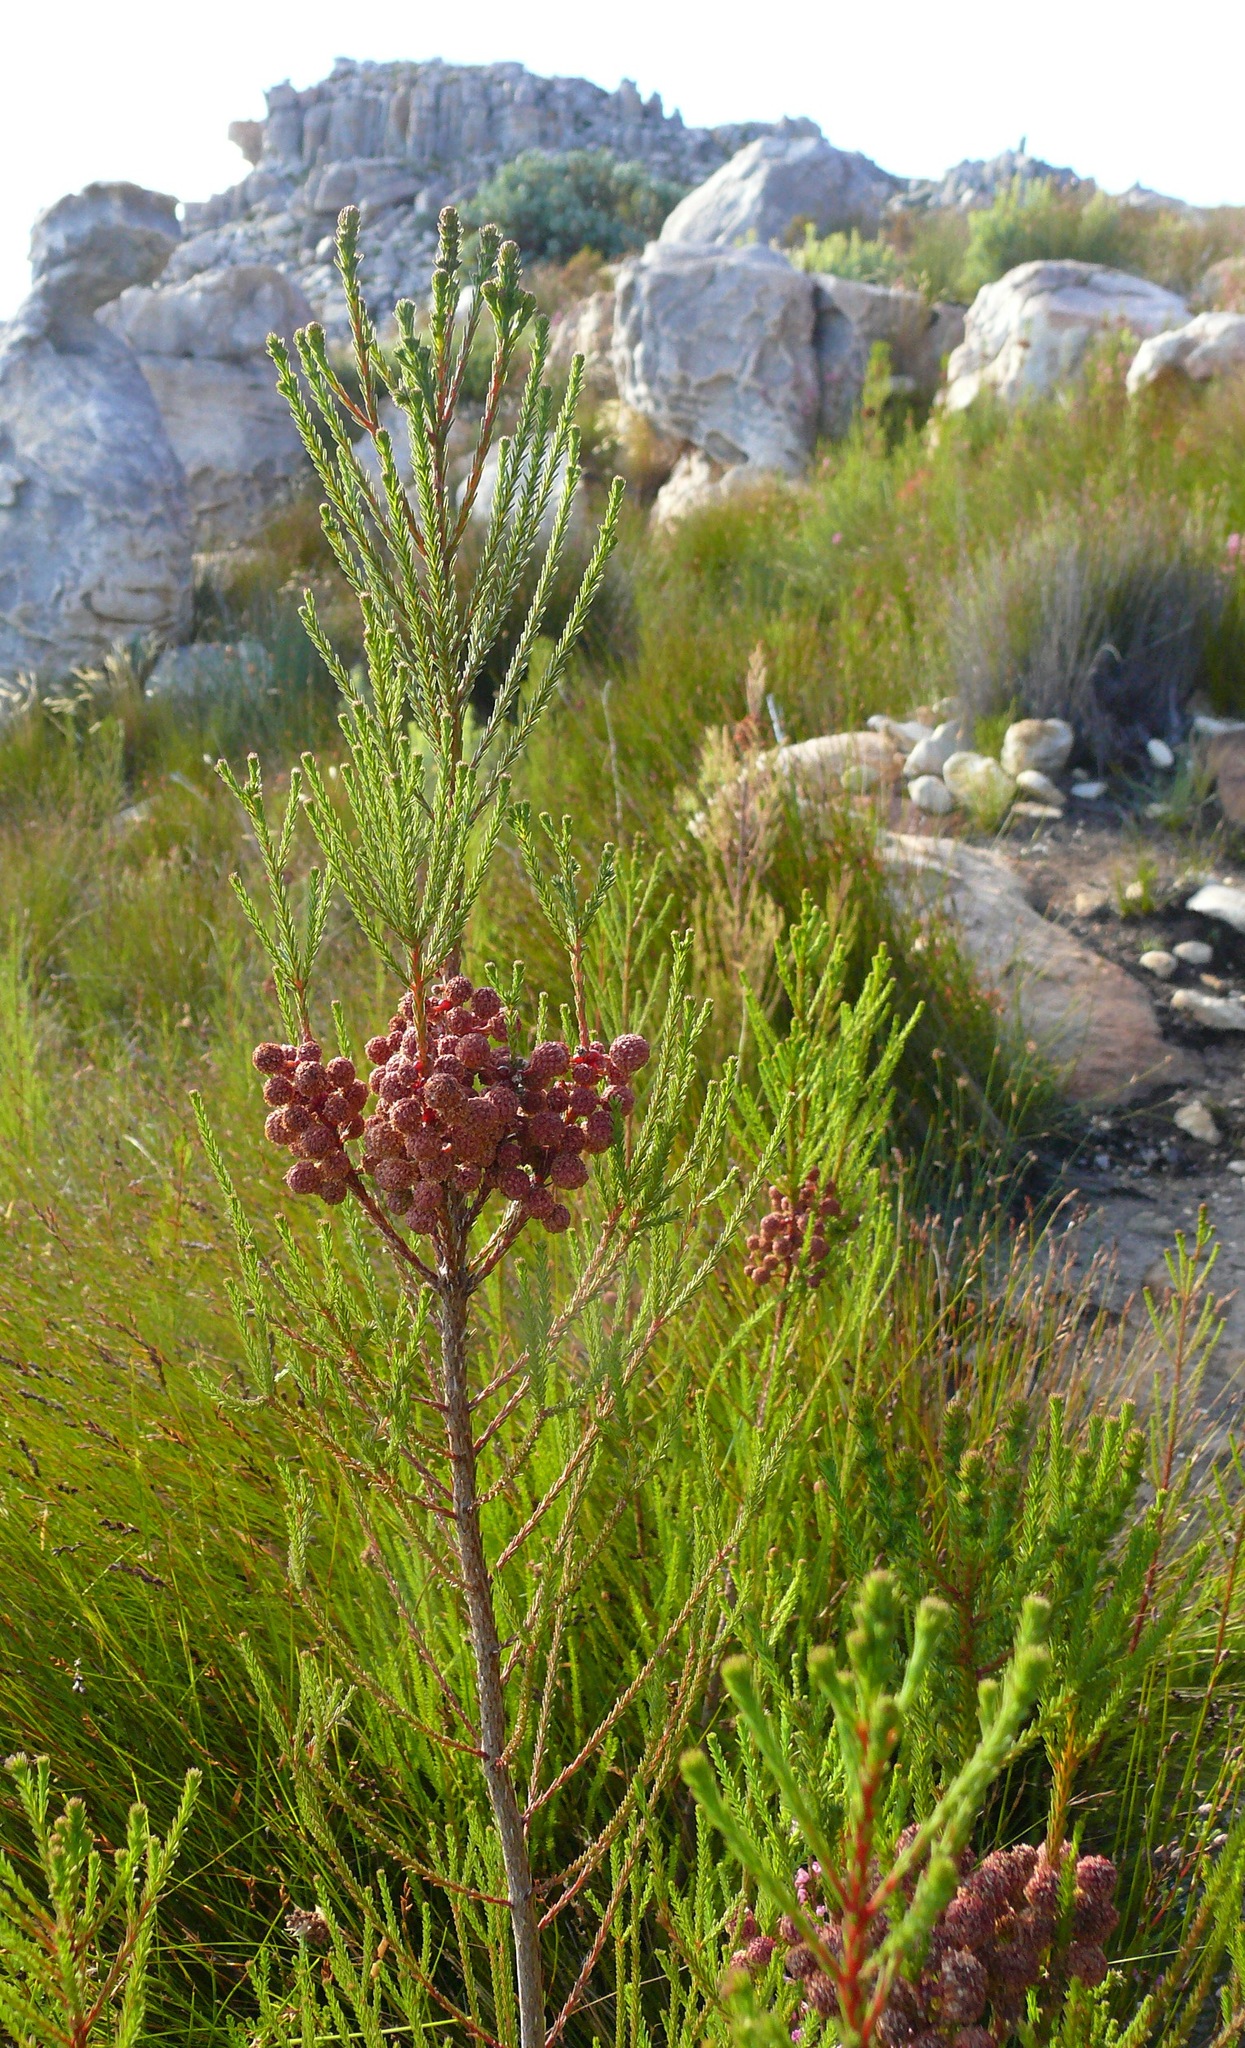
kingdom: Plantae
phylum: Tracheophyta
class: Magnoliopsida
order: Bruniales
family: Bruniaceae
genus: Berzelia
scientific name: Berzelia intermedia
